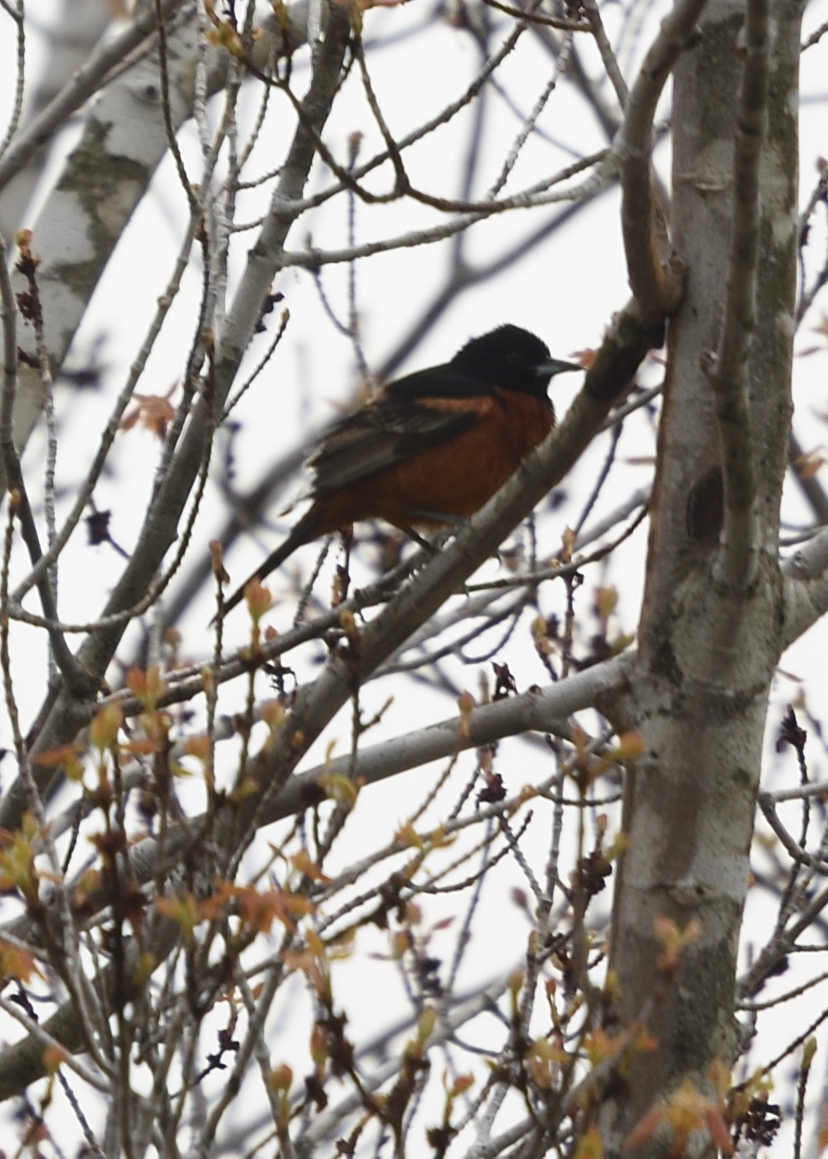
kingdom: Animalia
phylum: Chordata
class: Aves
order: Passeriformes
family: Icteridae
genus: Icterus
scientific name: Icterus spurius
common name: Orchard oriole
